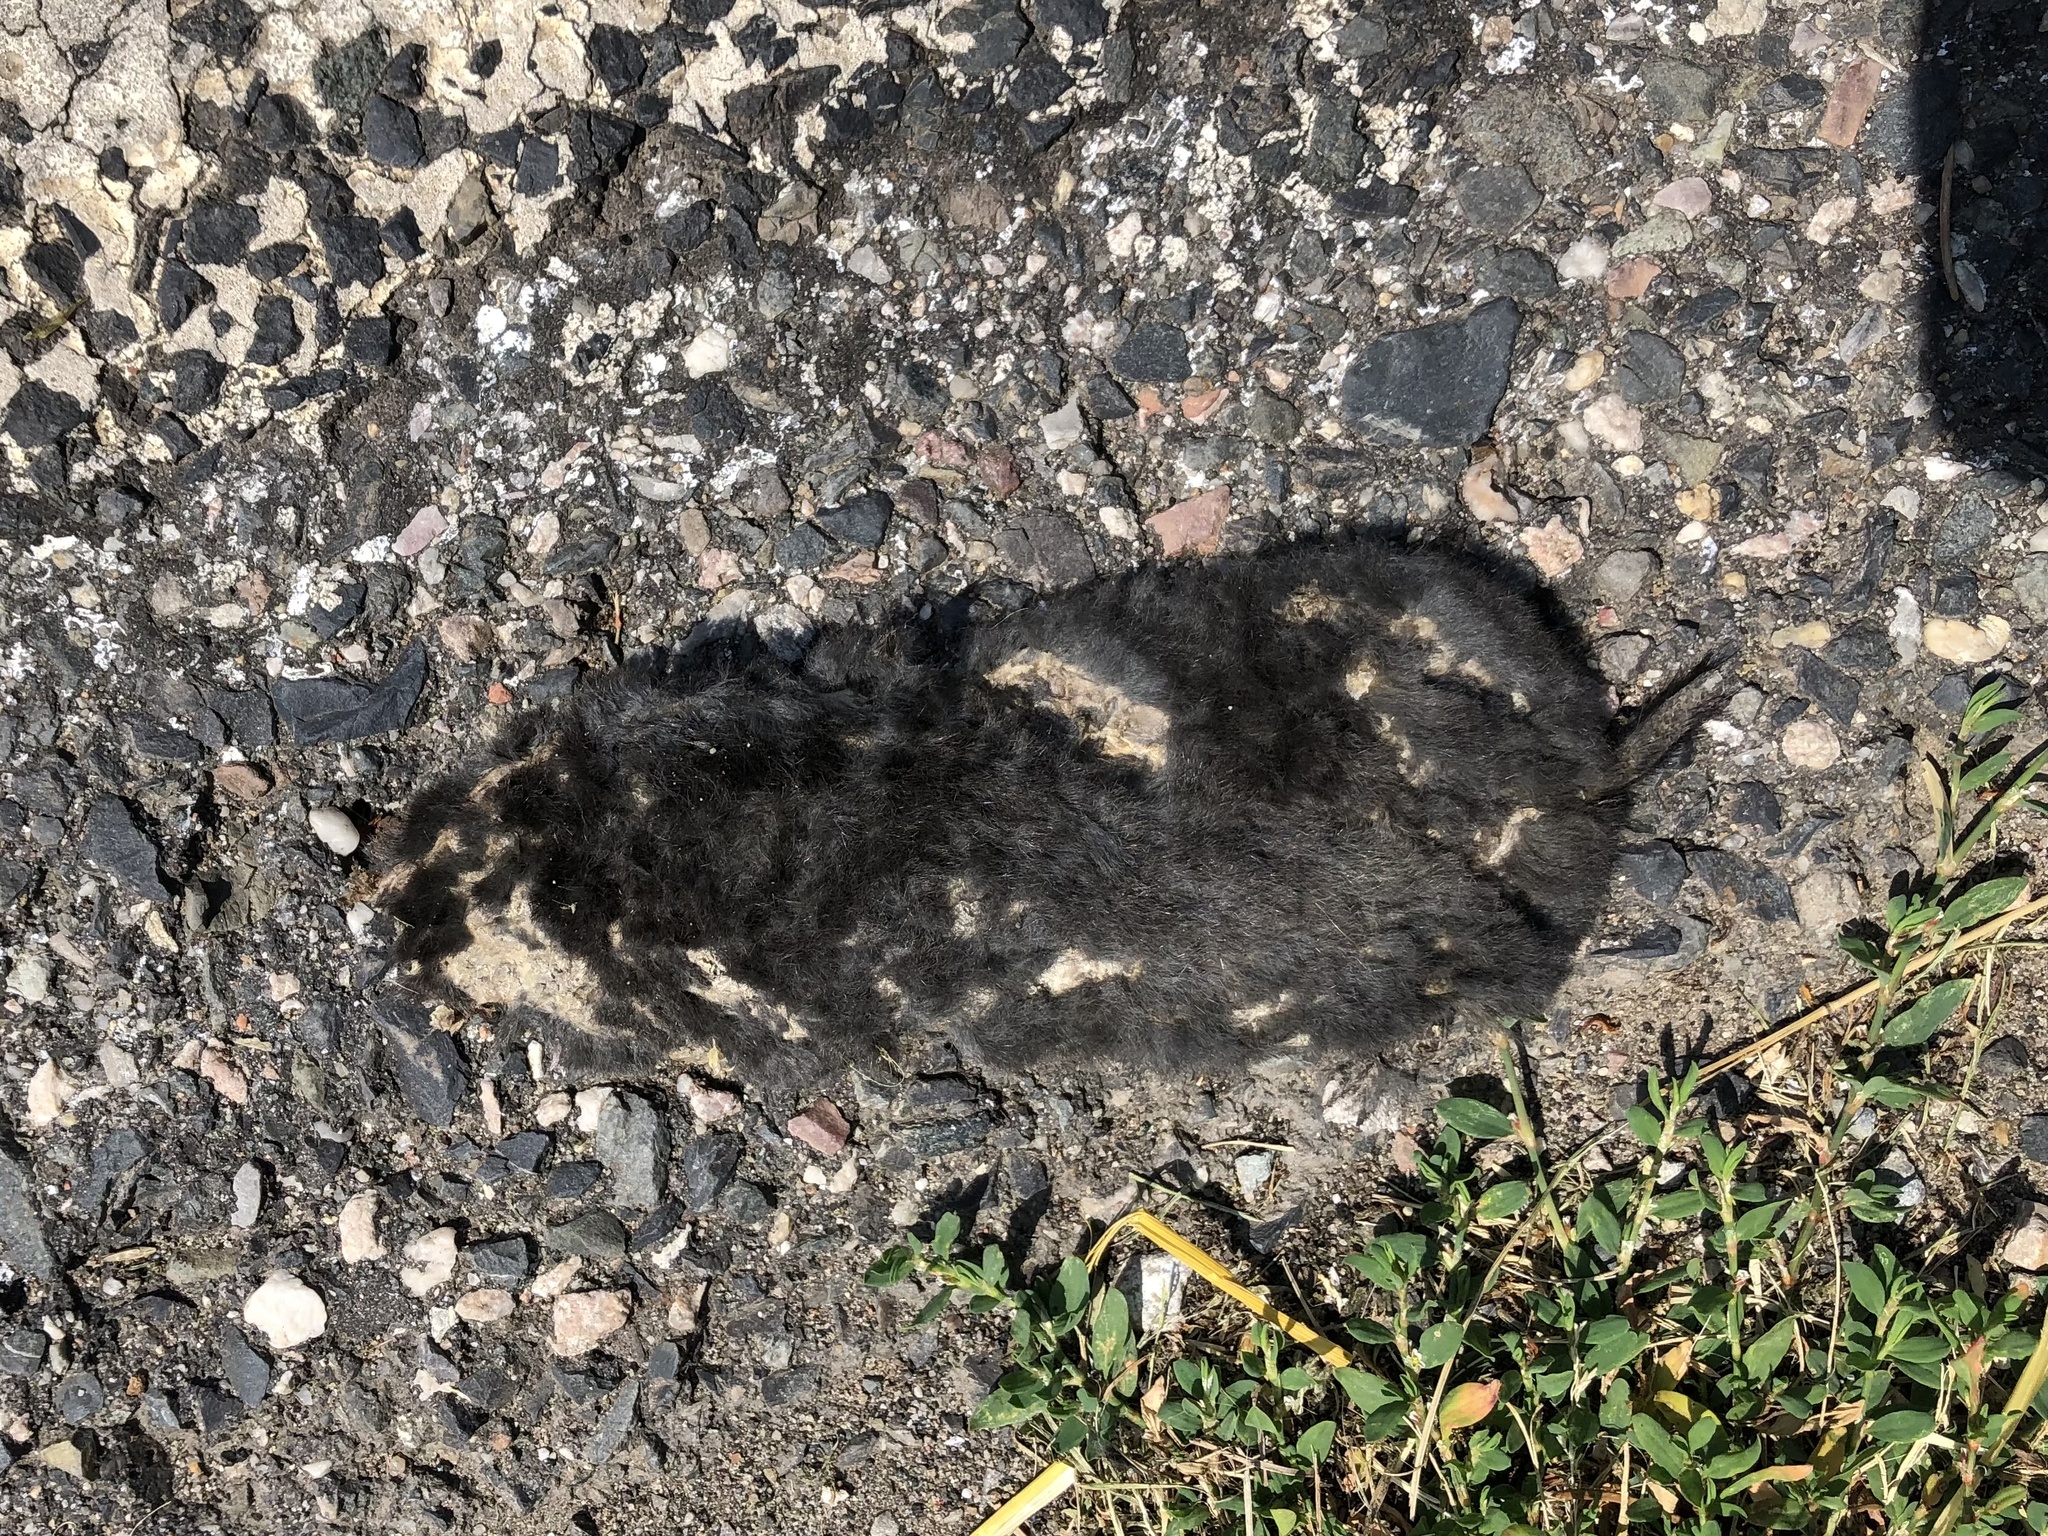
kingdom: Animalia
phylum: Chordata
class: Mammalia
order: Soricomorpha
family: Talpidae
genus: Talpa
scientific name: Talpa europaea
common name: European mole
